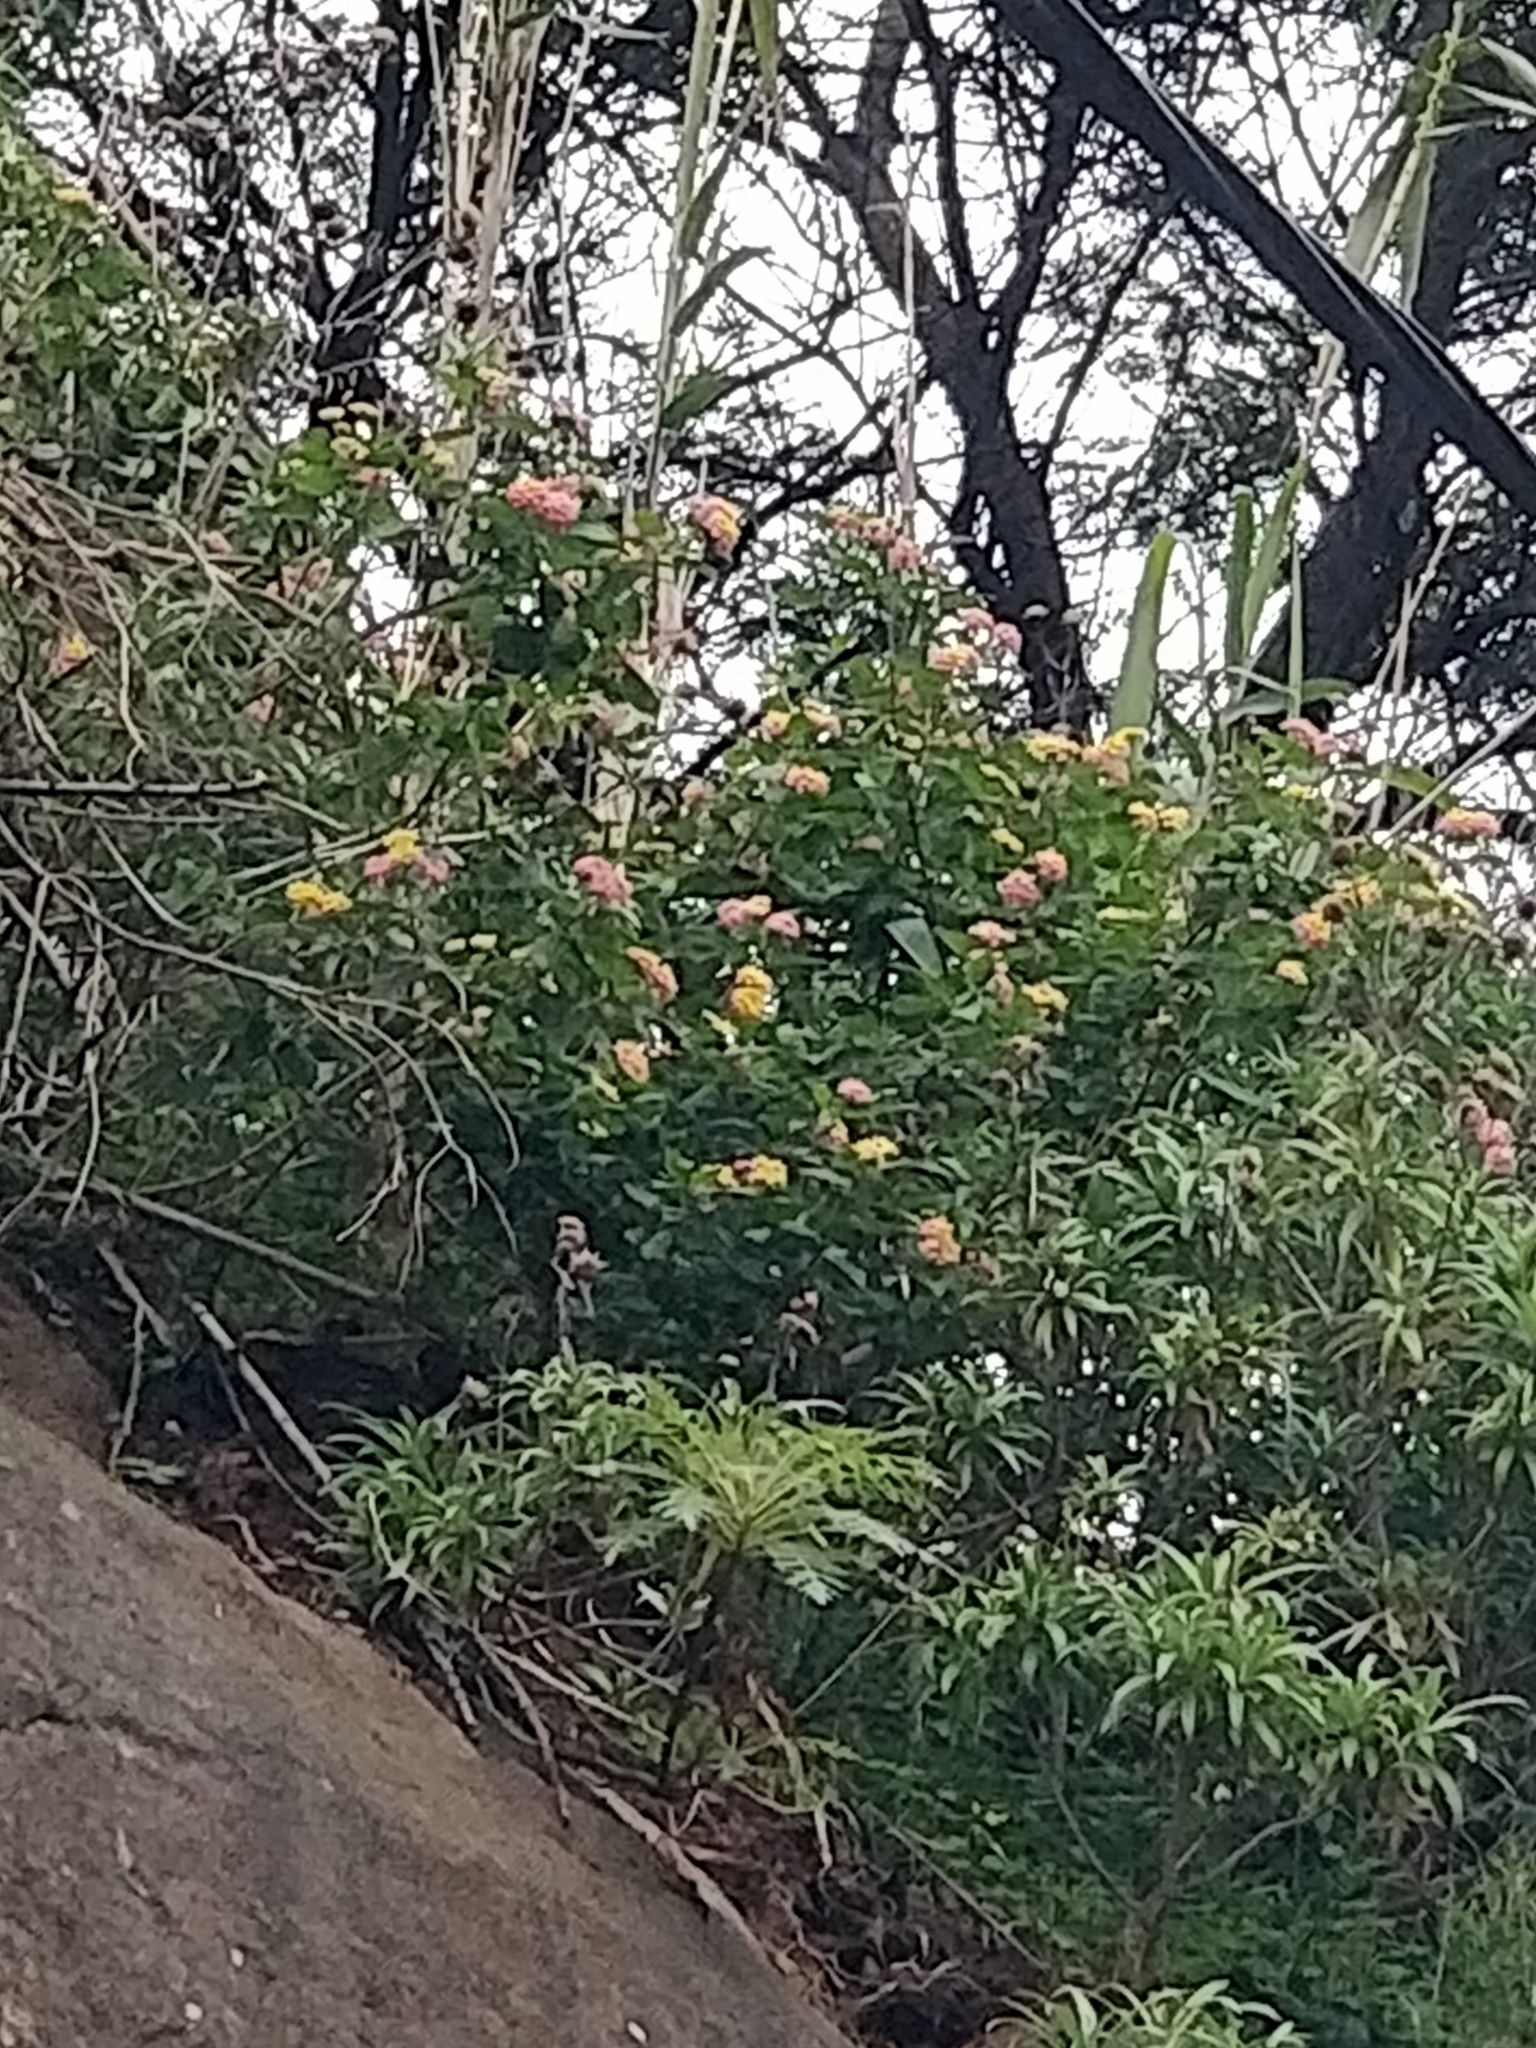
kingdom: Plantae
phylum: Tracheophyta
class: Magnoliopsida
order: Lamiales
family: Verbenaceae
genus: Lantana
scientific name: Lantana camara
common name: Lantana
